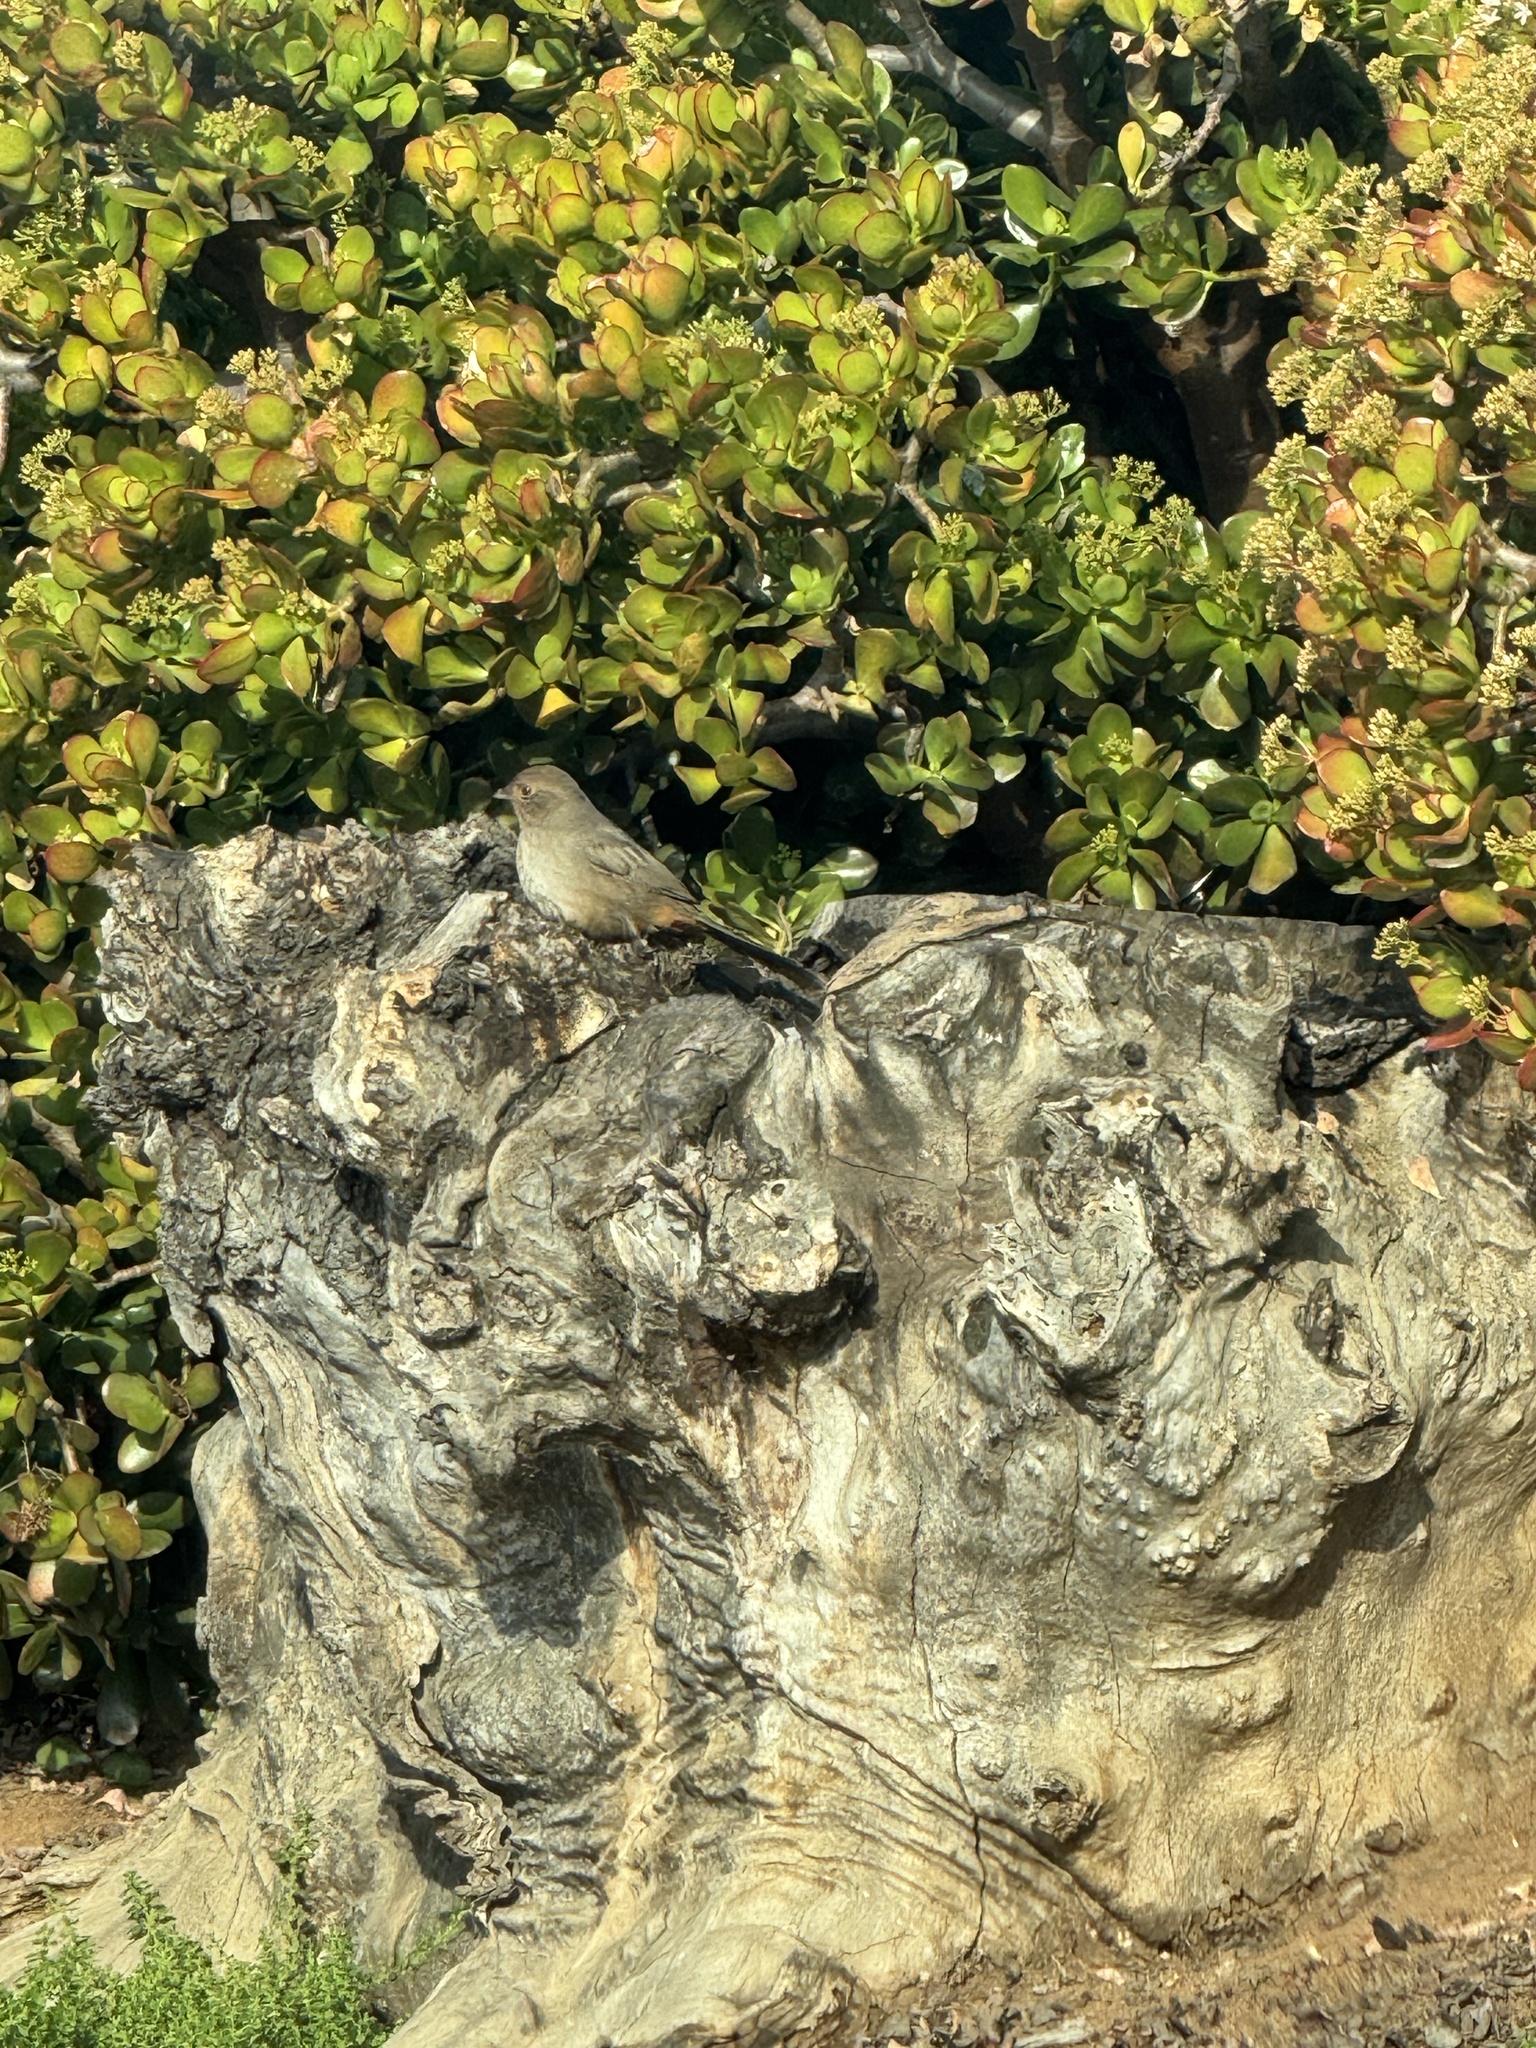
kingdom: Animalia
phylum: Chordata
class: Aves
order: Passeriformes
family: Passerellidae
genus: Melozone
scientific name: Melozone crissalis
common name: California towhee
